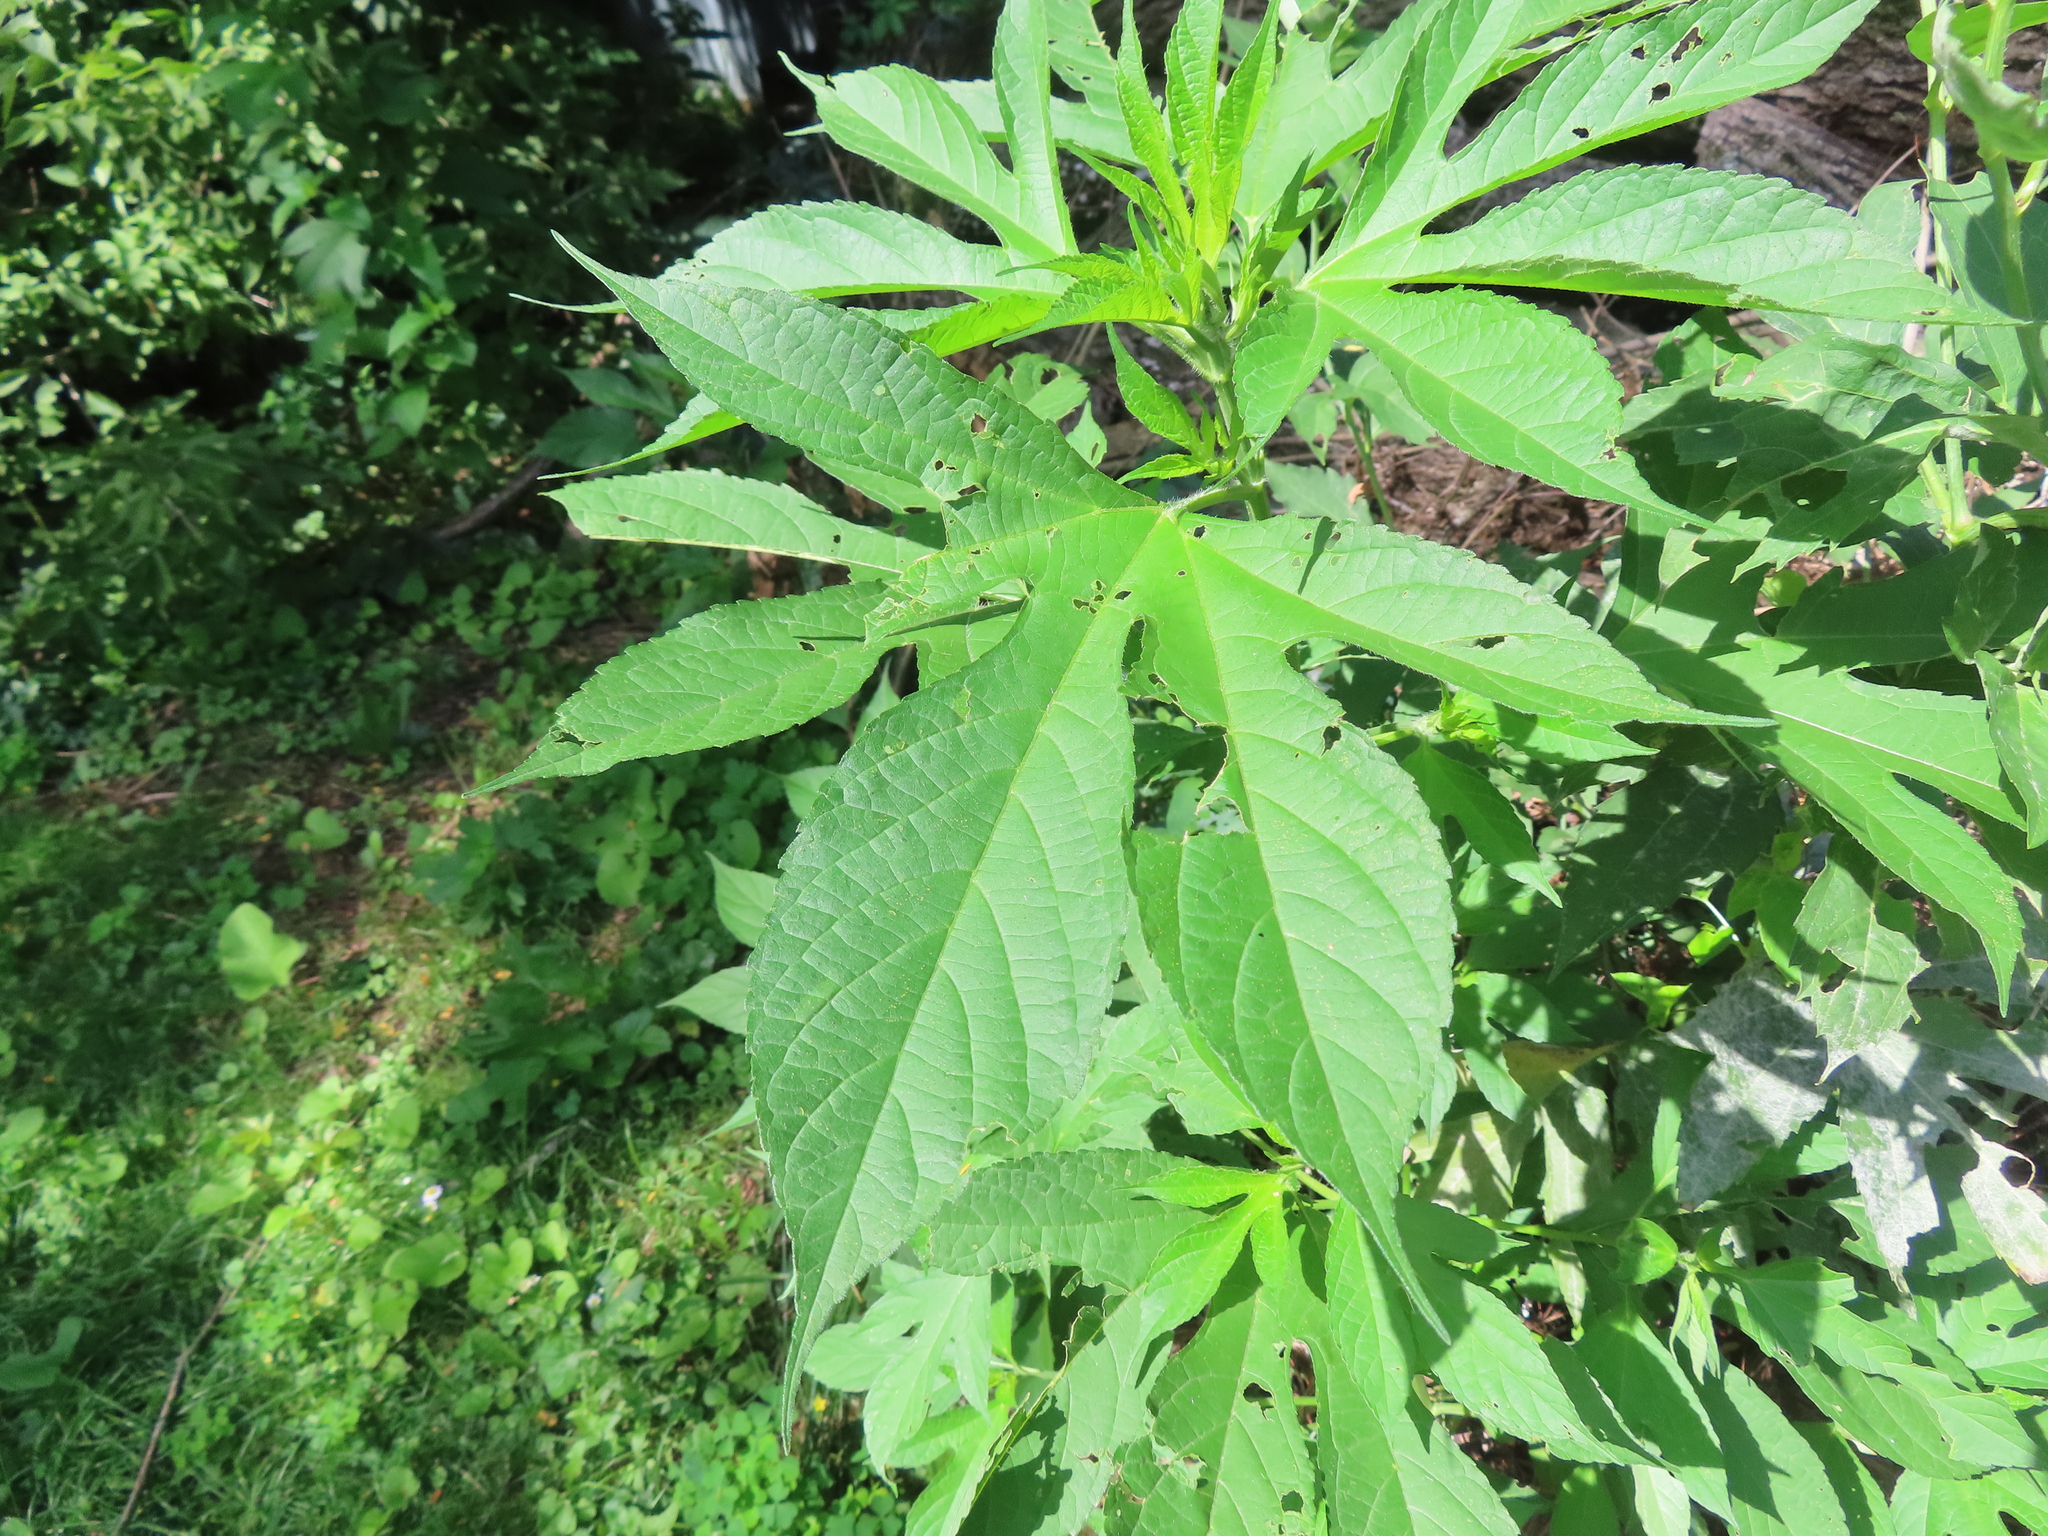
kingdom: Plantae
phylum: Tracheophyta
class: Magnoliopsida
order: Asterales
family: Asteraceae
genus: Ambrosia
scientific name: Ambrosia trifida
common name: Giant ragweed
